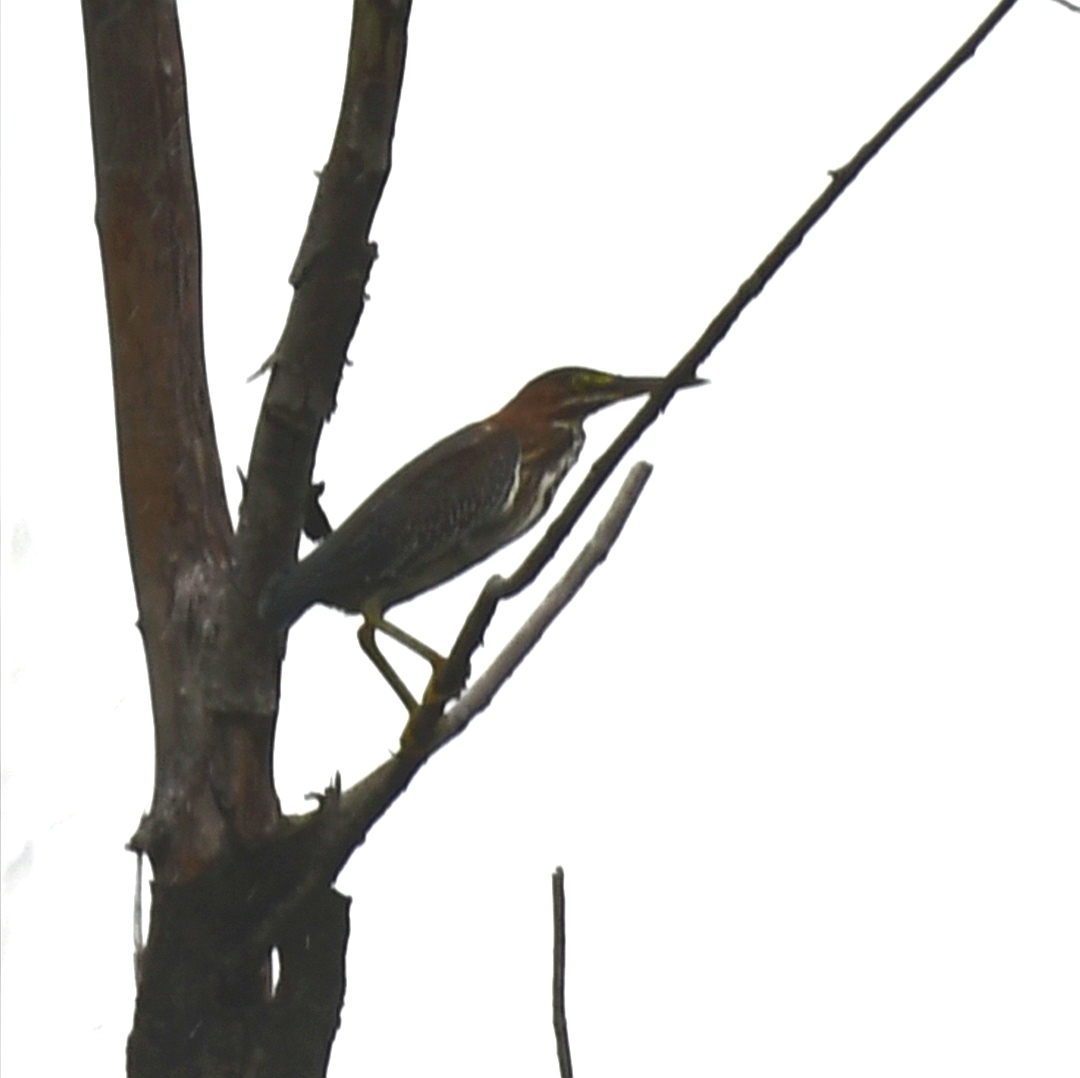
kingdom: Animalia
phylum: Chordata
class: Aves
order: Pelecaniformes
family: Ardeidae
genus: Butorides
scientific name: Butorides virescens
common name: Green heron
